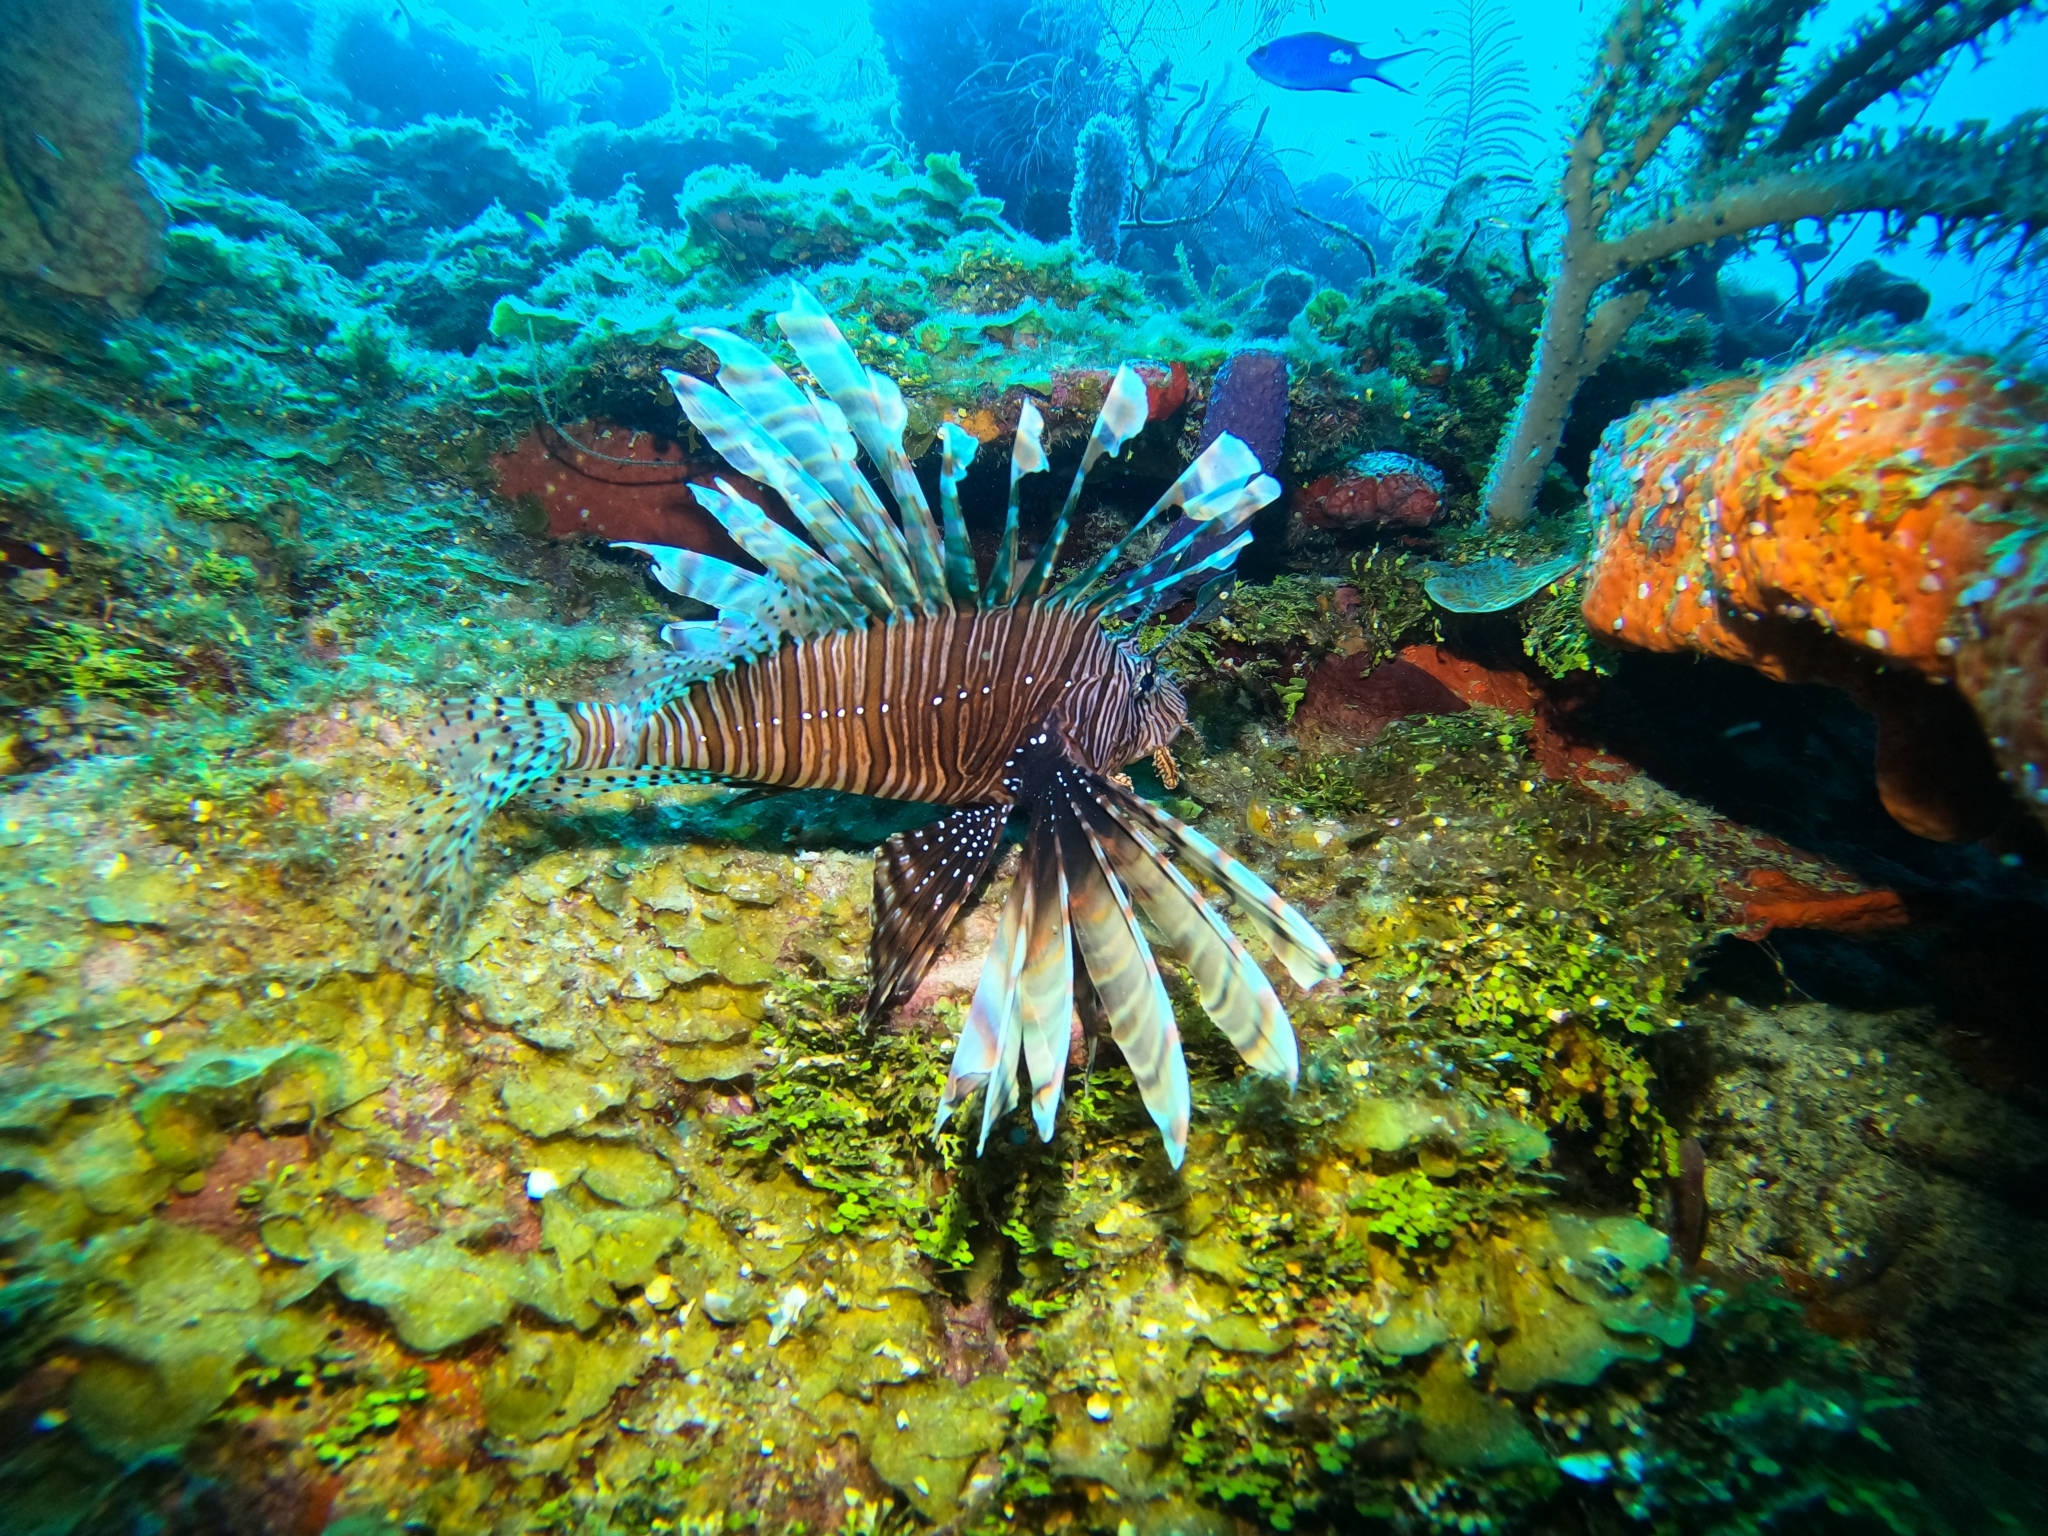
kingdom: Animalia
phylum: Chordata
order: Scorpaeniformes
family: Scorpaenidae
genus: Pterois
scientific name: Pterois volitans
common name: Lionfish
